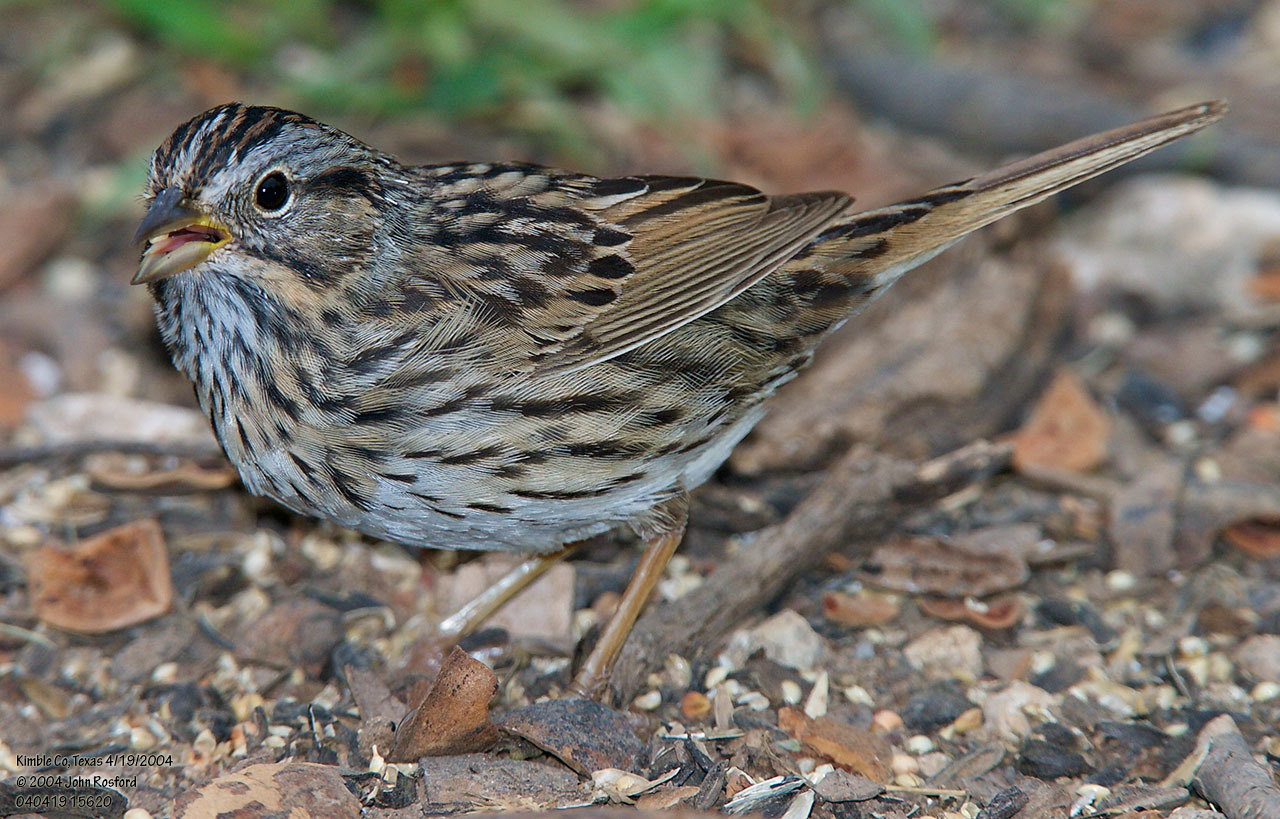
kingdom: Animalia
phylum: Chordata
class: Aves
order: Passeriformes
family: Passerellidae
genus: Melospiza
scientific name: Melospiza lincolnii
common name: Lincoln's sparrow
